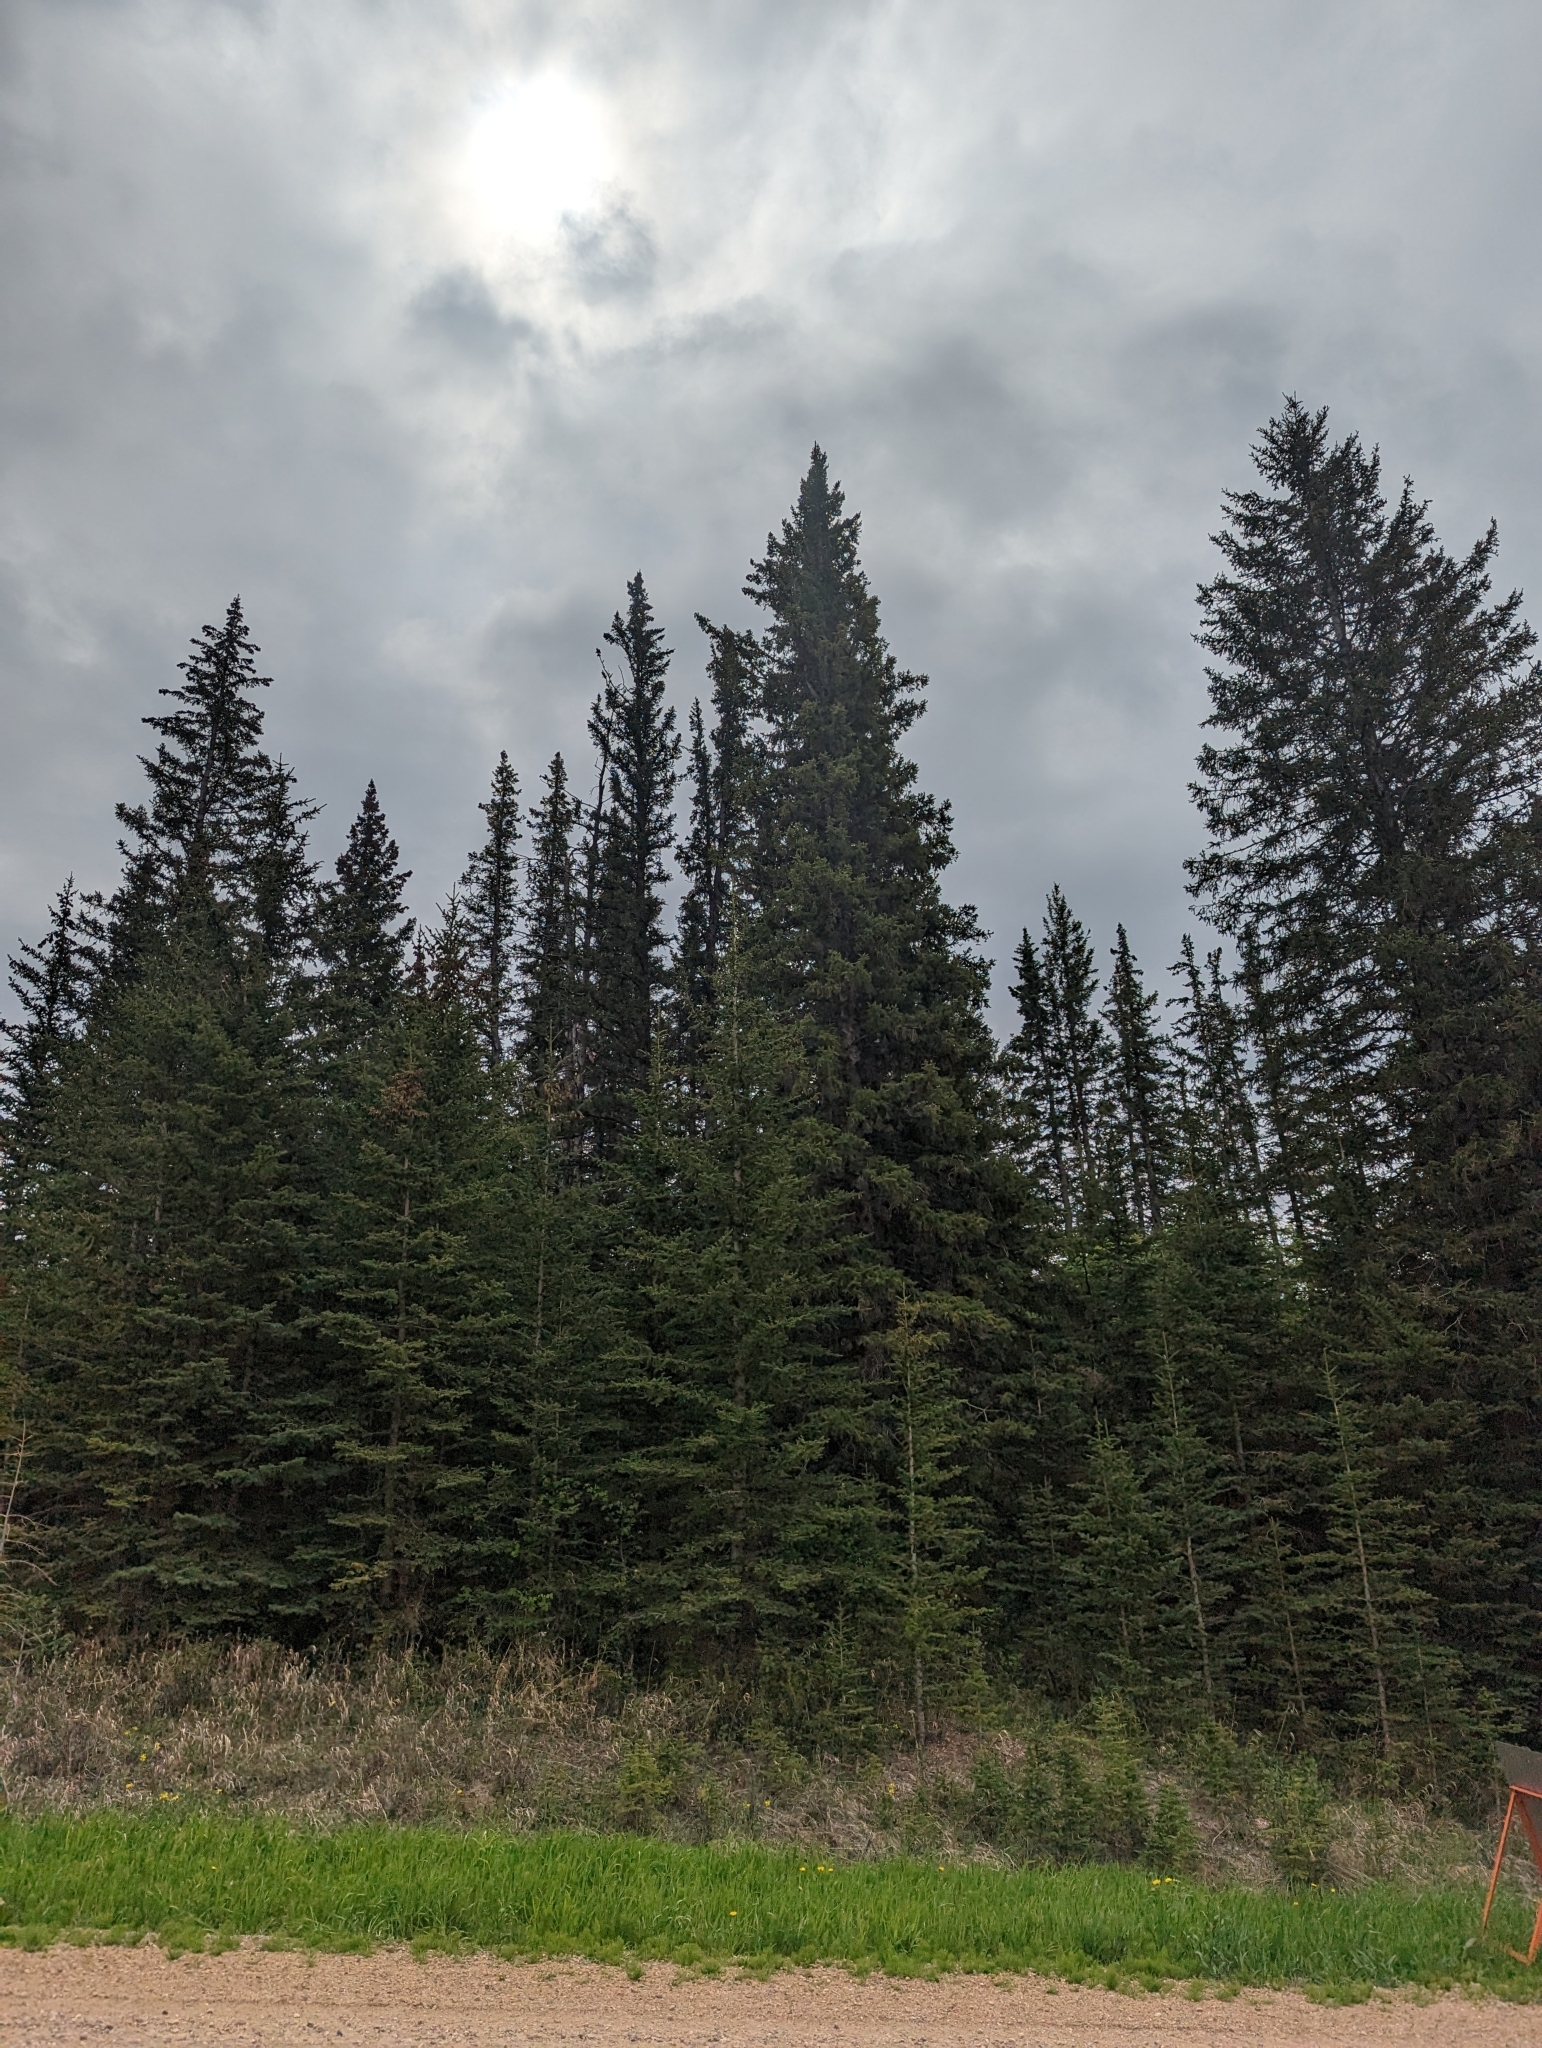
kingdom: Plantae
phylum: Tracheophyta
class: Pinopsida
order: Pinales
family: Pinaceae
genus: Picea
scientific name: Picea glauca
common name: White spruce
